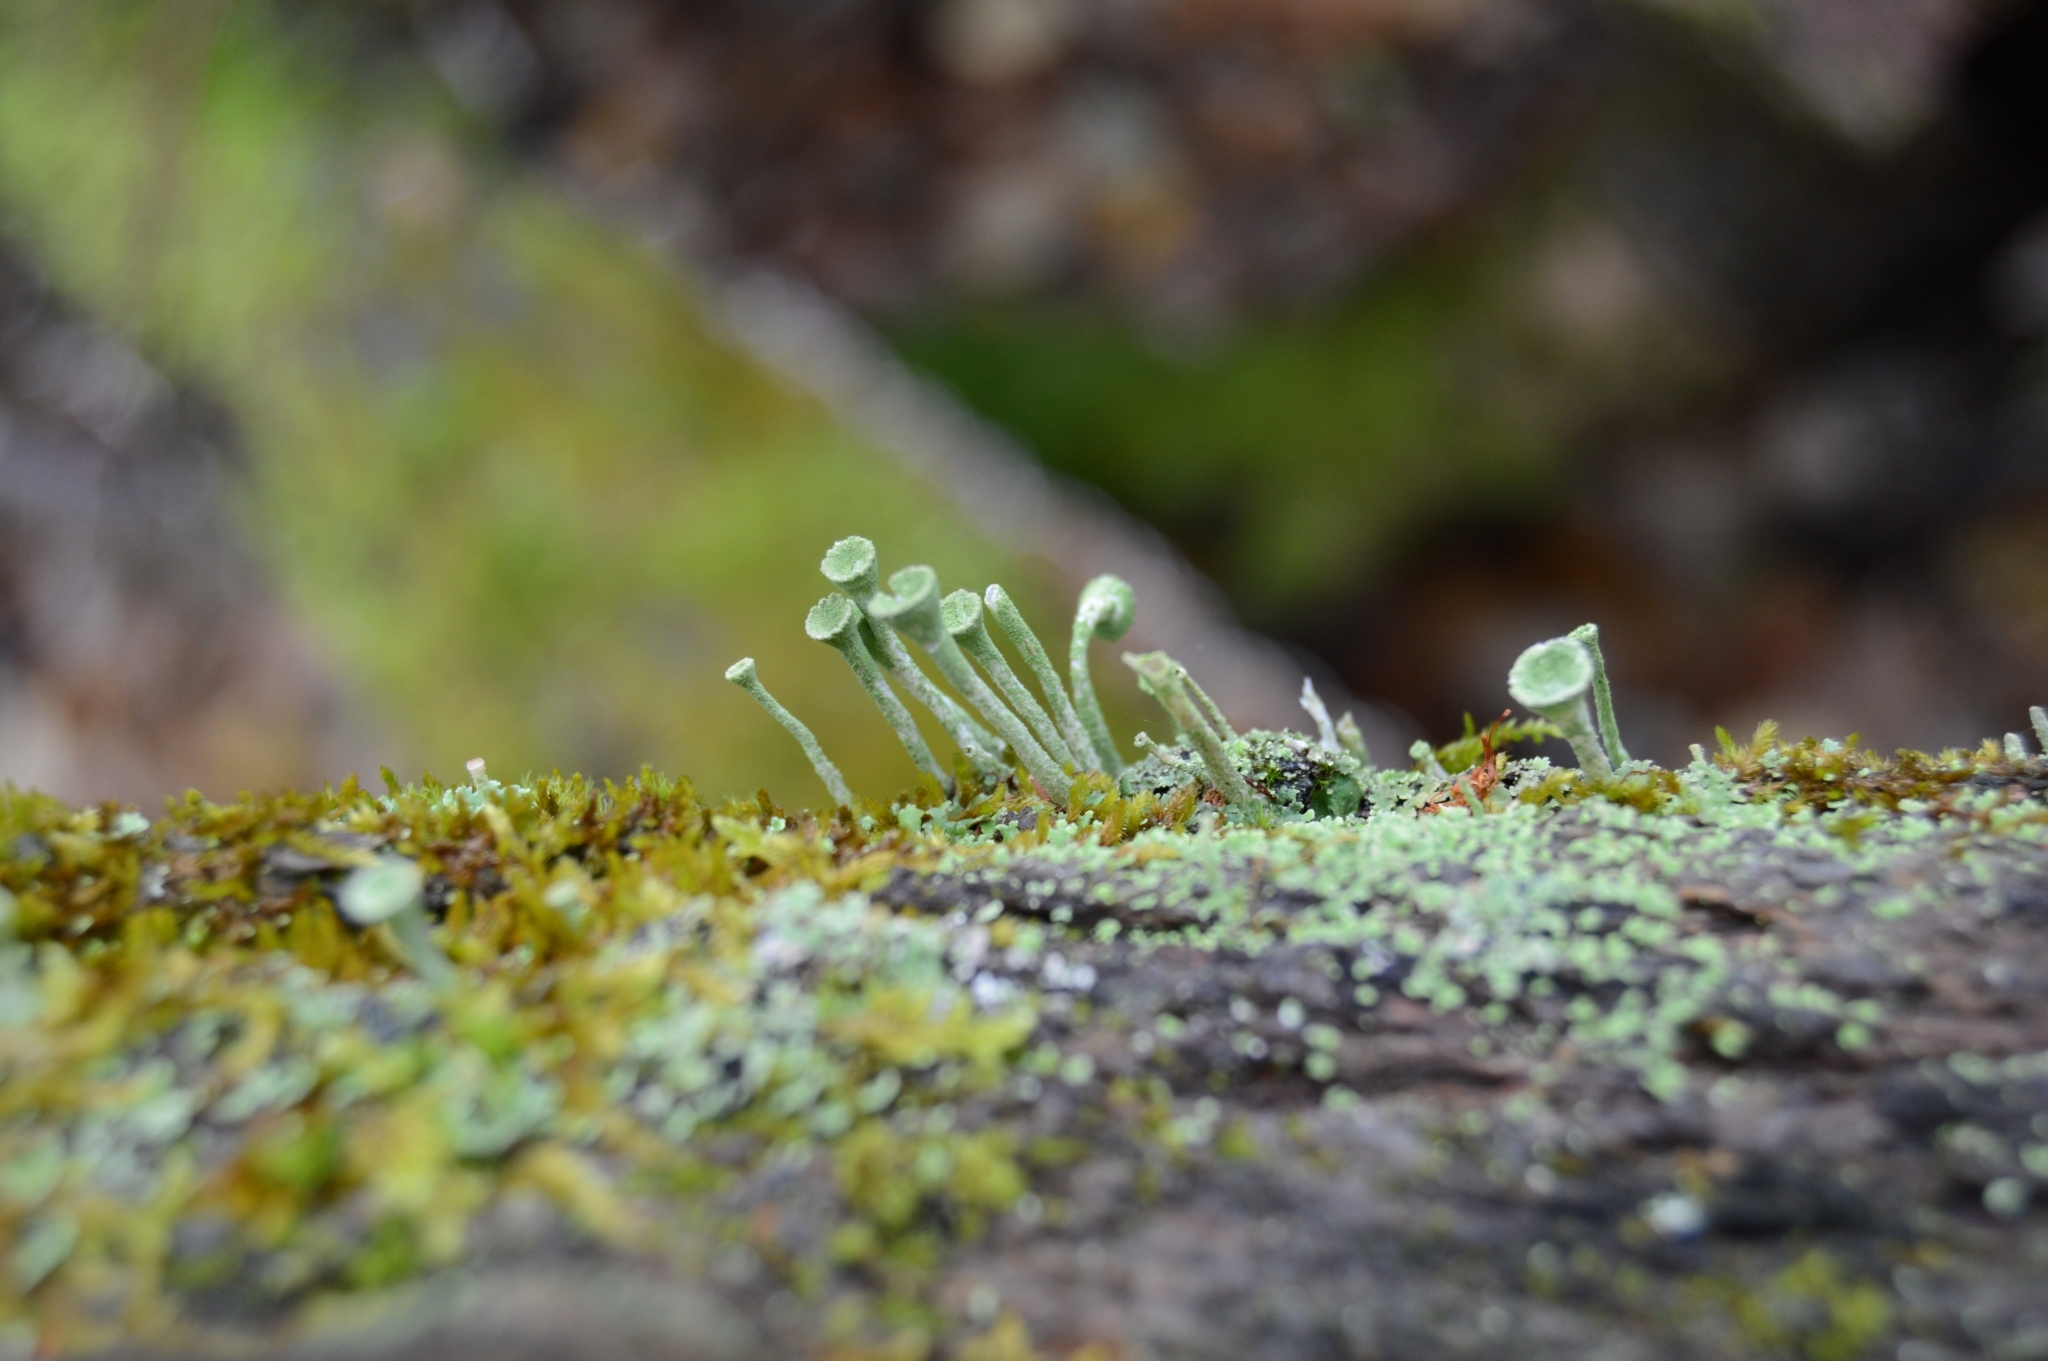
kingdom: Fungi
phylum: Ascomycota
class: Lecanoromycetes
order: Lecanorales
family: Cladoniaceae
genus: Cladonia
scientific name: Cladonia fimbriata
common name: Powdered trumpet lichen
